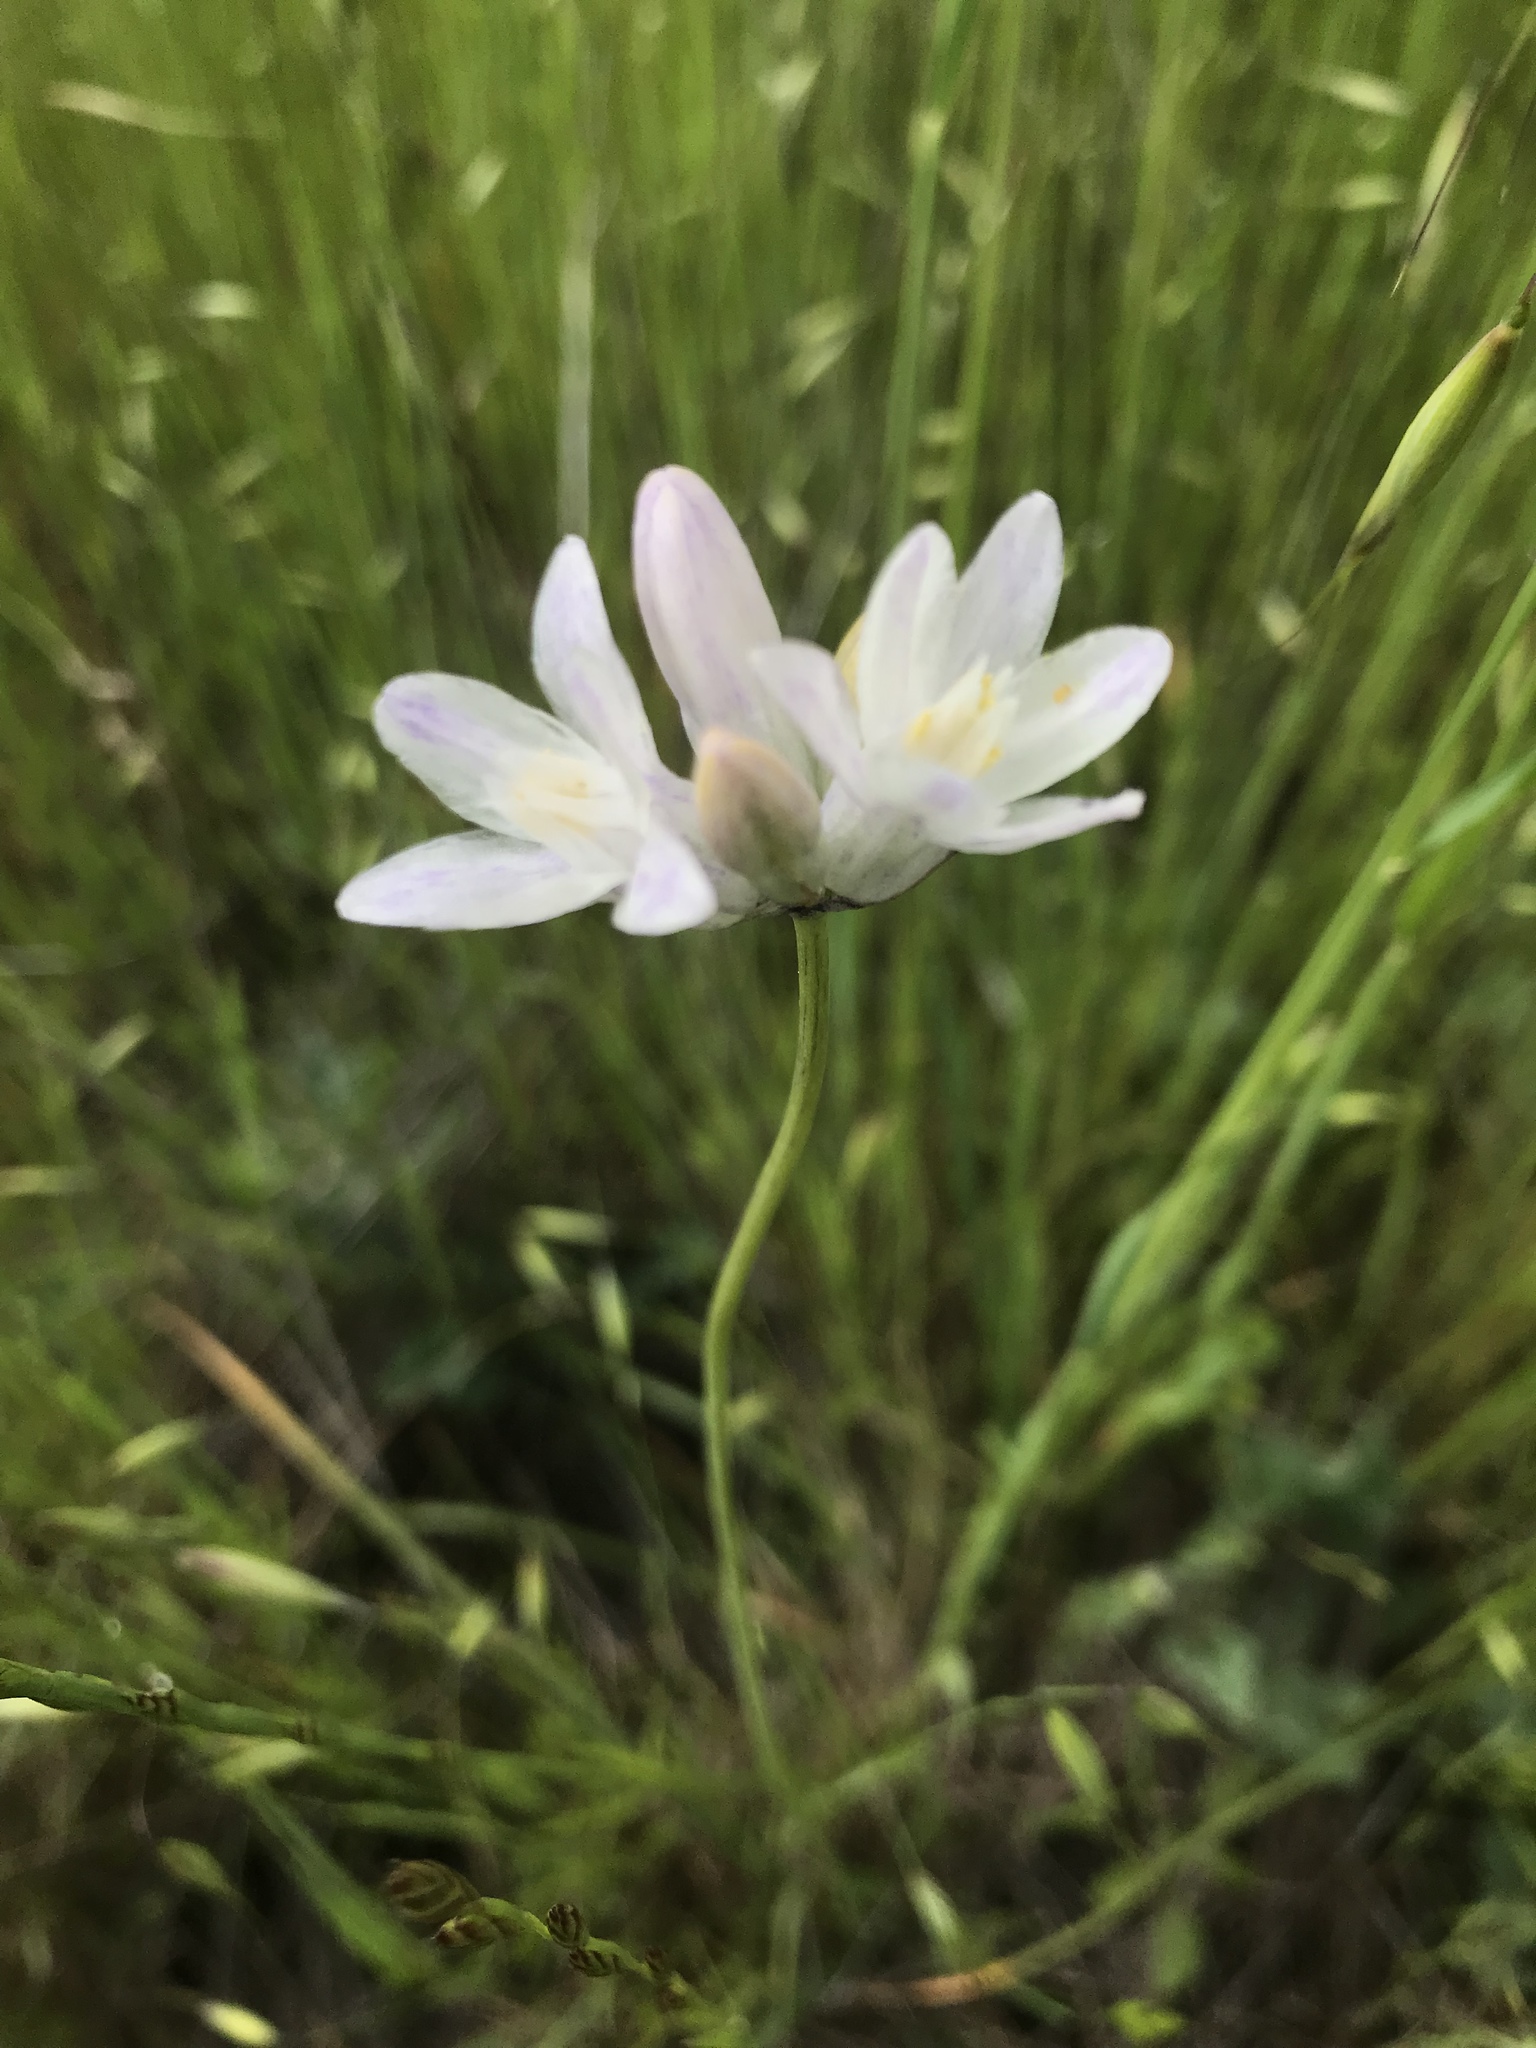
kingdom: Plantae
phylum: Tracheophyta
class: Liliopsida
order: Asparagales
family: Asparagaceae
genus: Dipterostemon
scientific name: Dipterostemon capitatus
